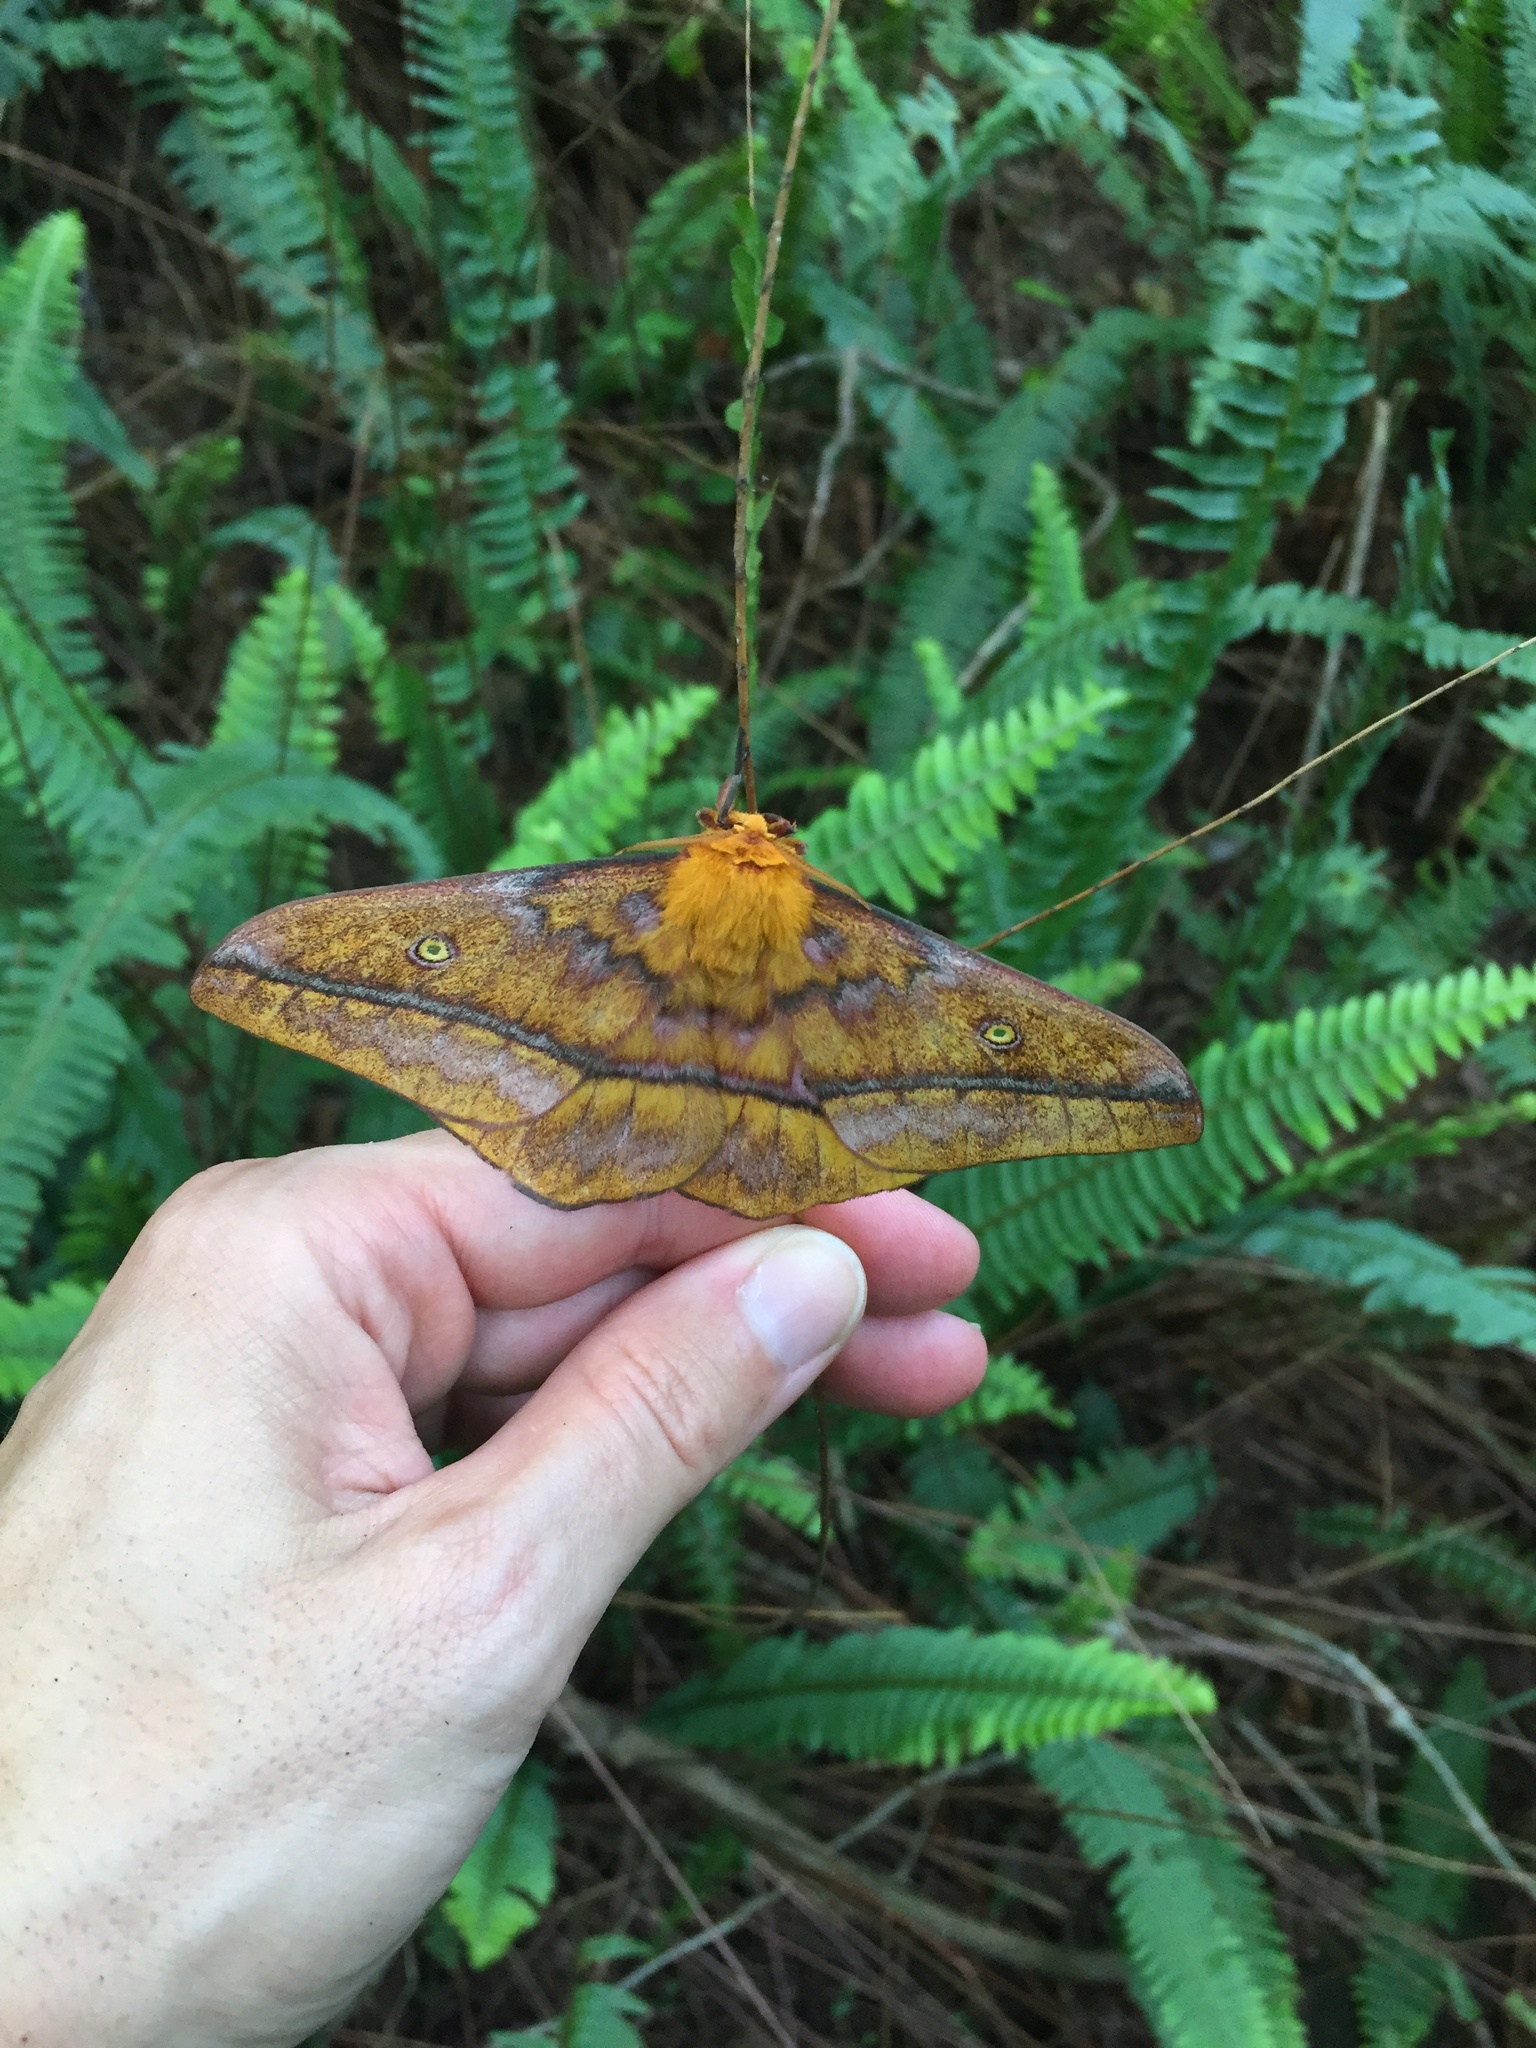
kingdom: Animalia
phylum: Arthropoda
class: Insecta
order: Lepidoptera
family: Saturniidae
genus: Nudaurelia
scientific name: Nudaurelia wahlbergi
